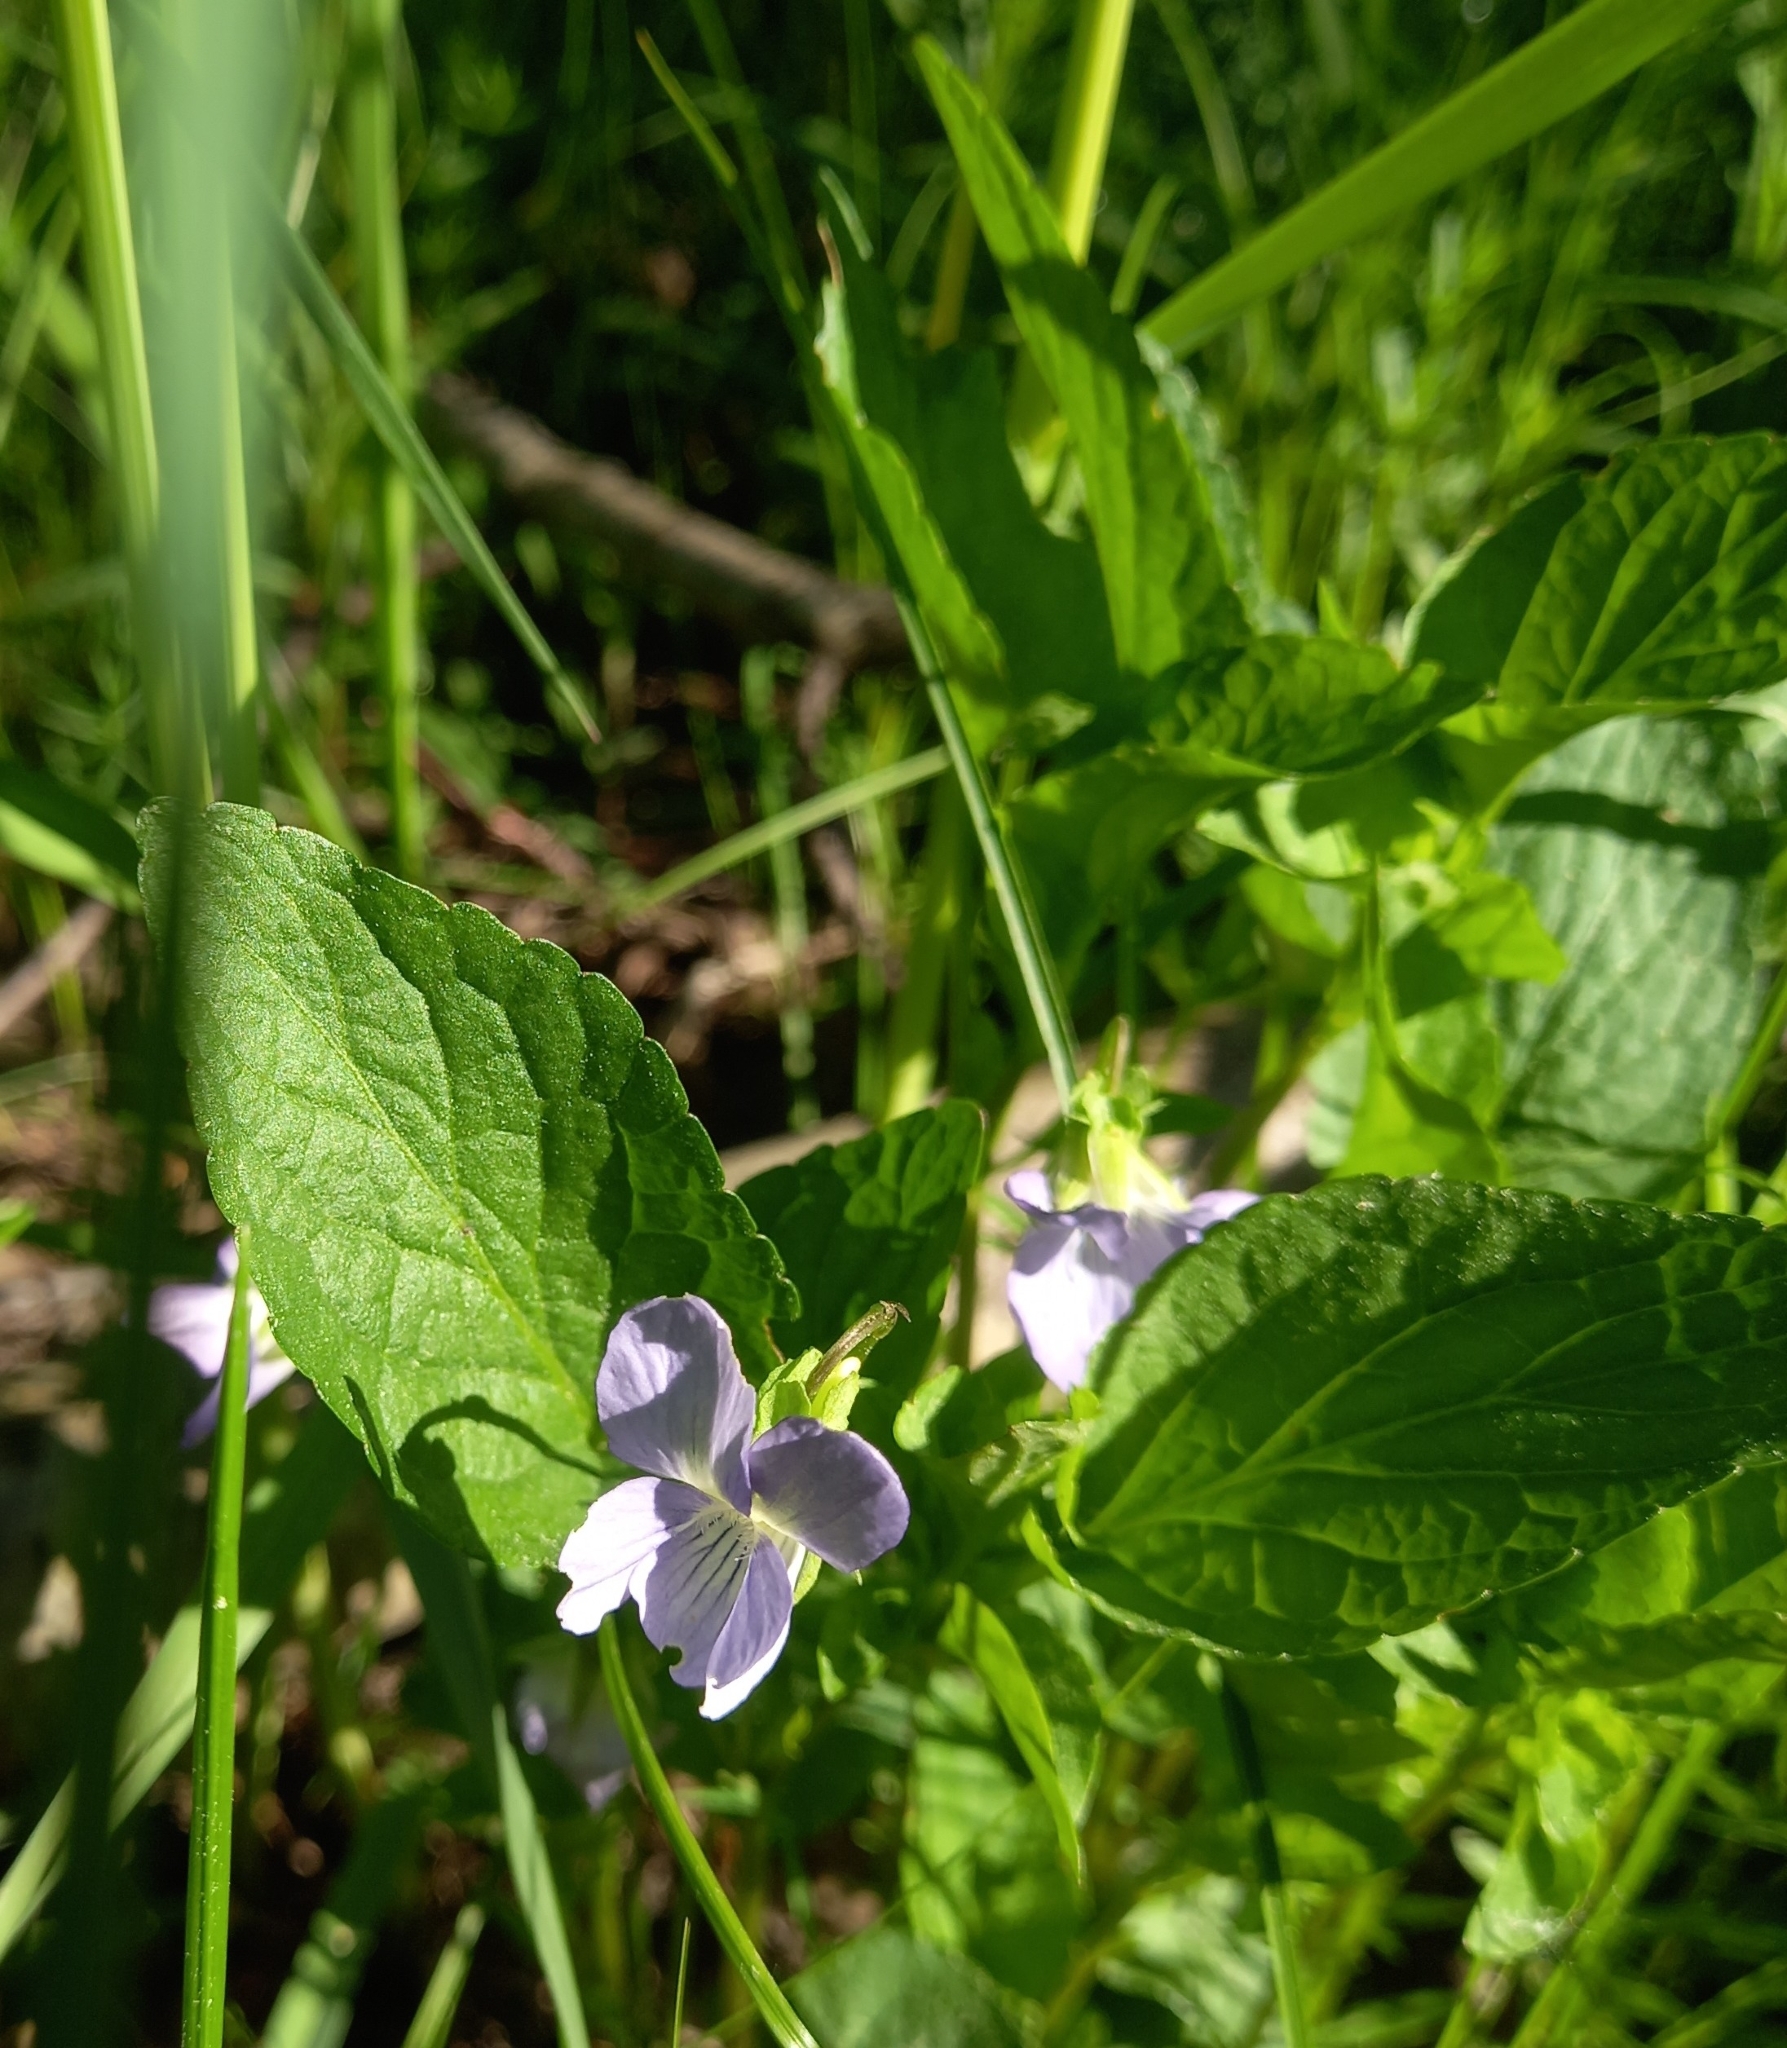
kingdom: Plantae
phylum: Tracheophyta
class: Magnoliopsida
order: Malpighiales
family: Violaceae
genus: Viola
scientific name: Viola
